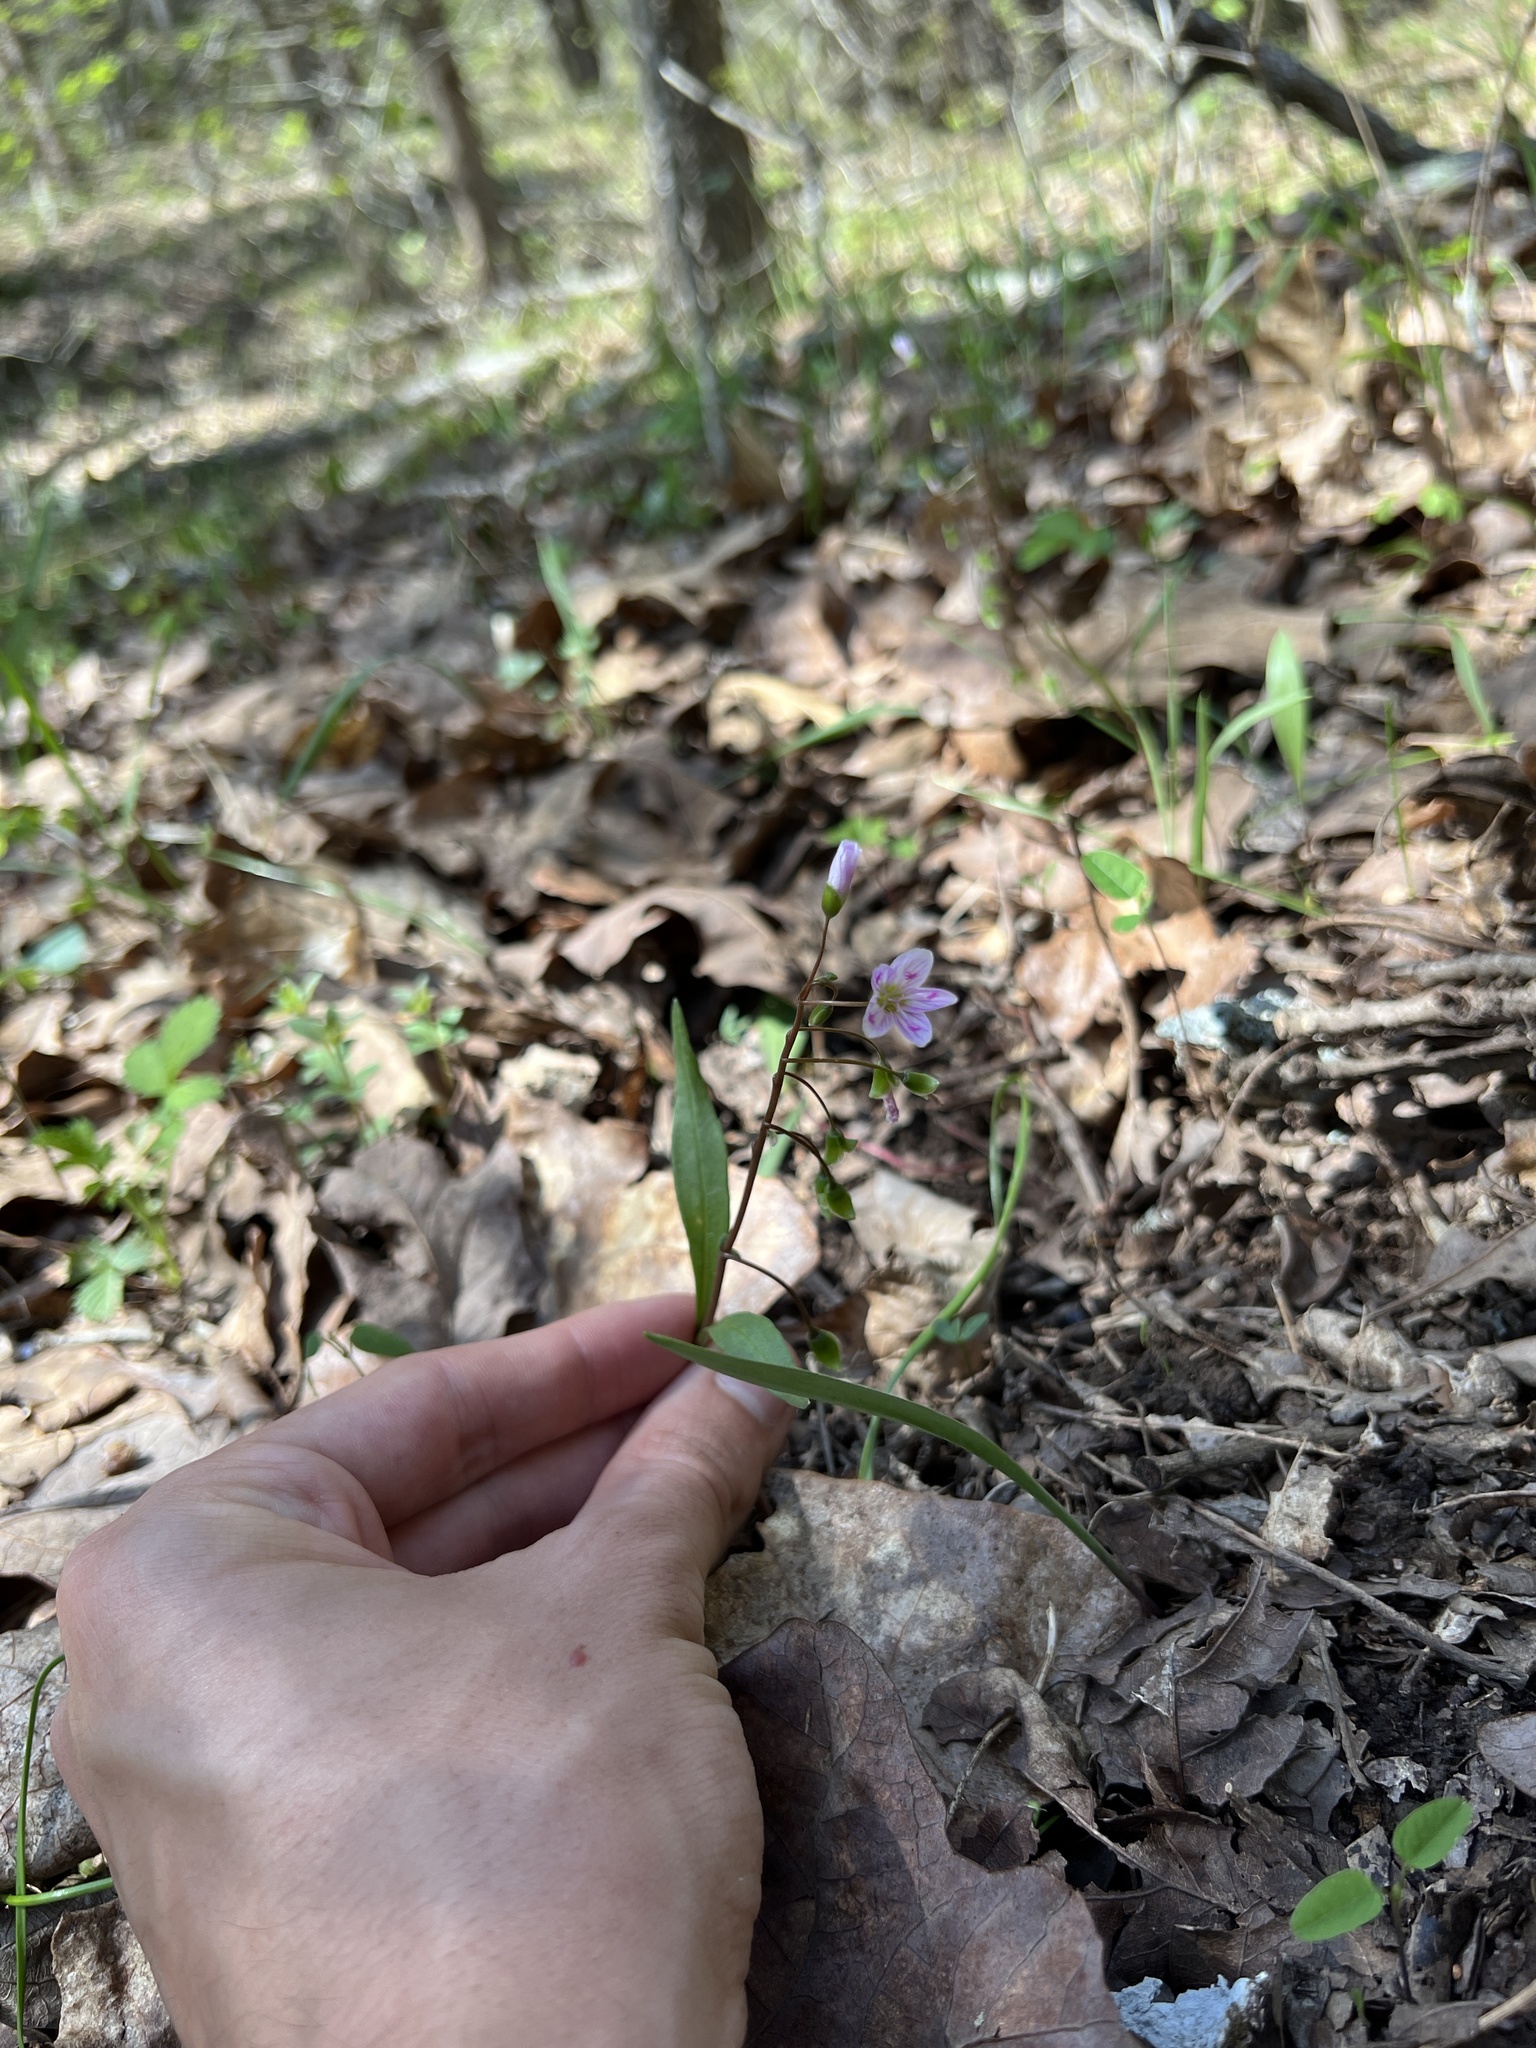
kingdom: Plantae
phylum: Tracheophyta
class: Magnoliopsida
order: Caryophyllales
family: Montiaceae
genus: Claytonia
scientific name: Claytonia virginica
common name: Virginia springbeauty
